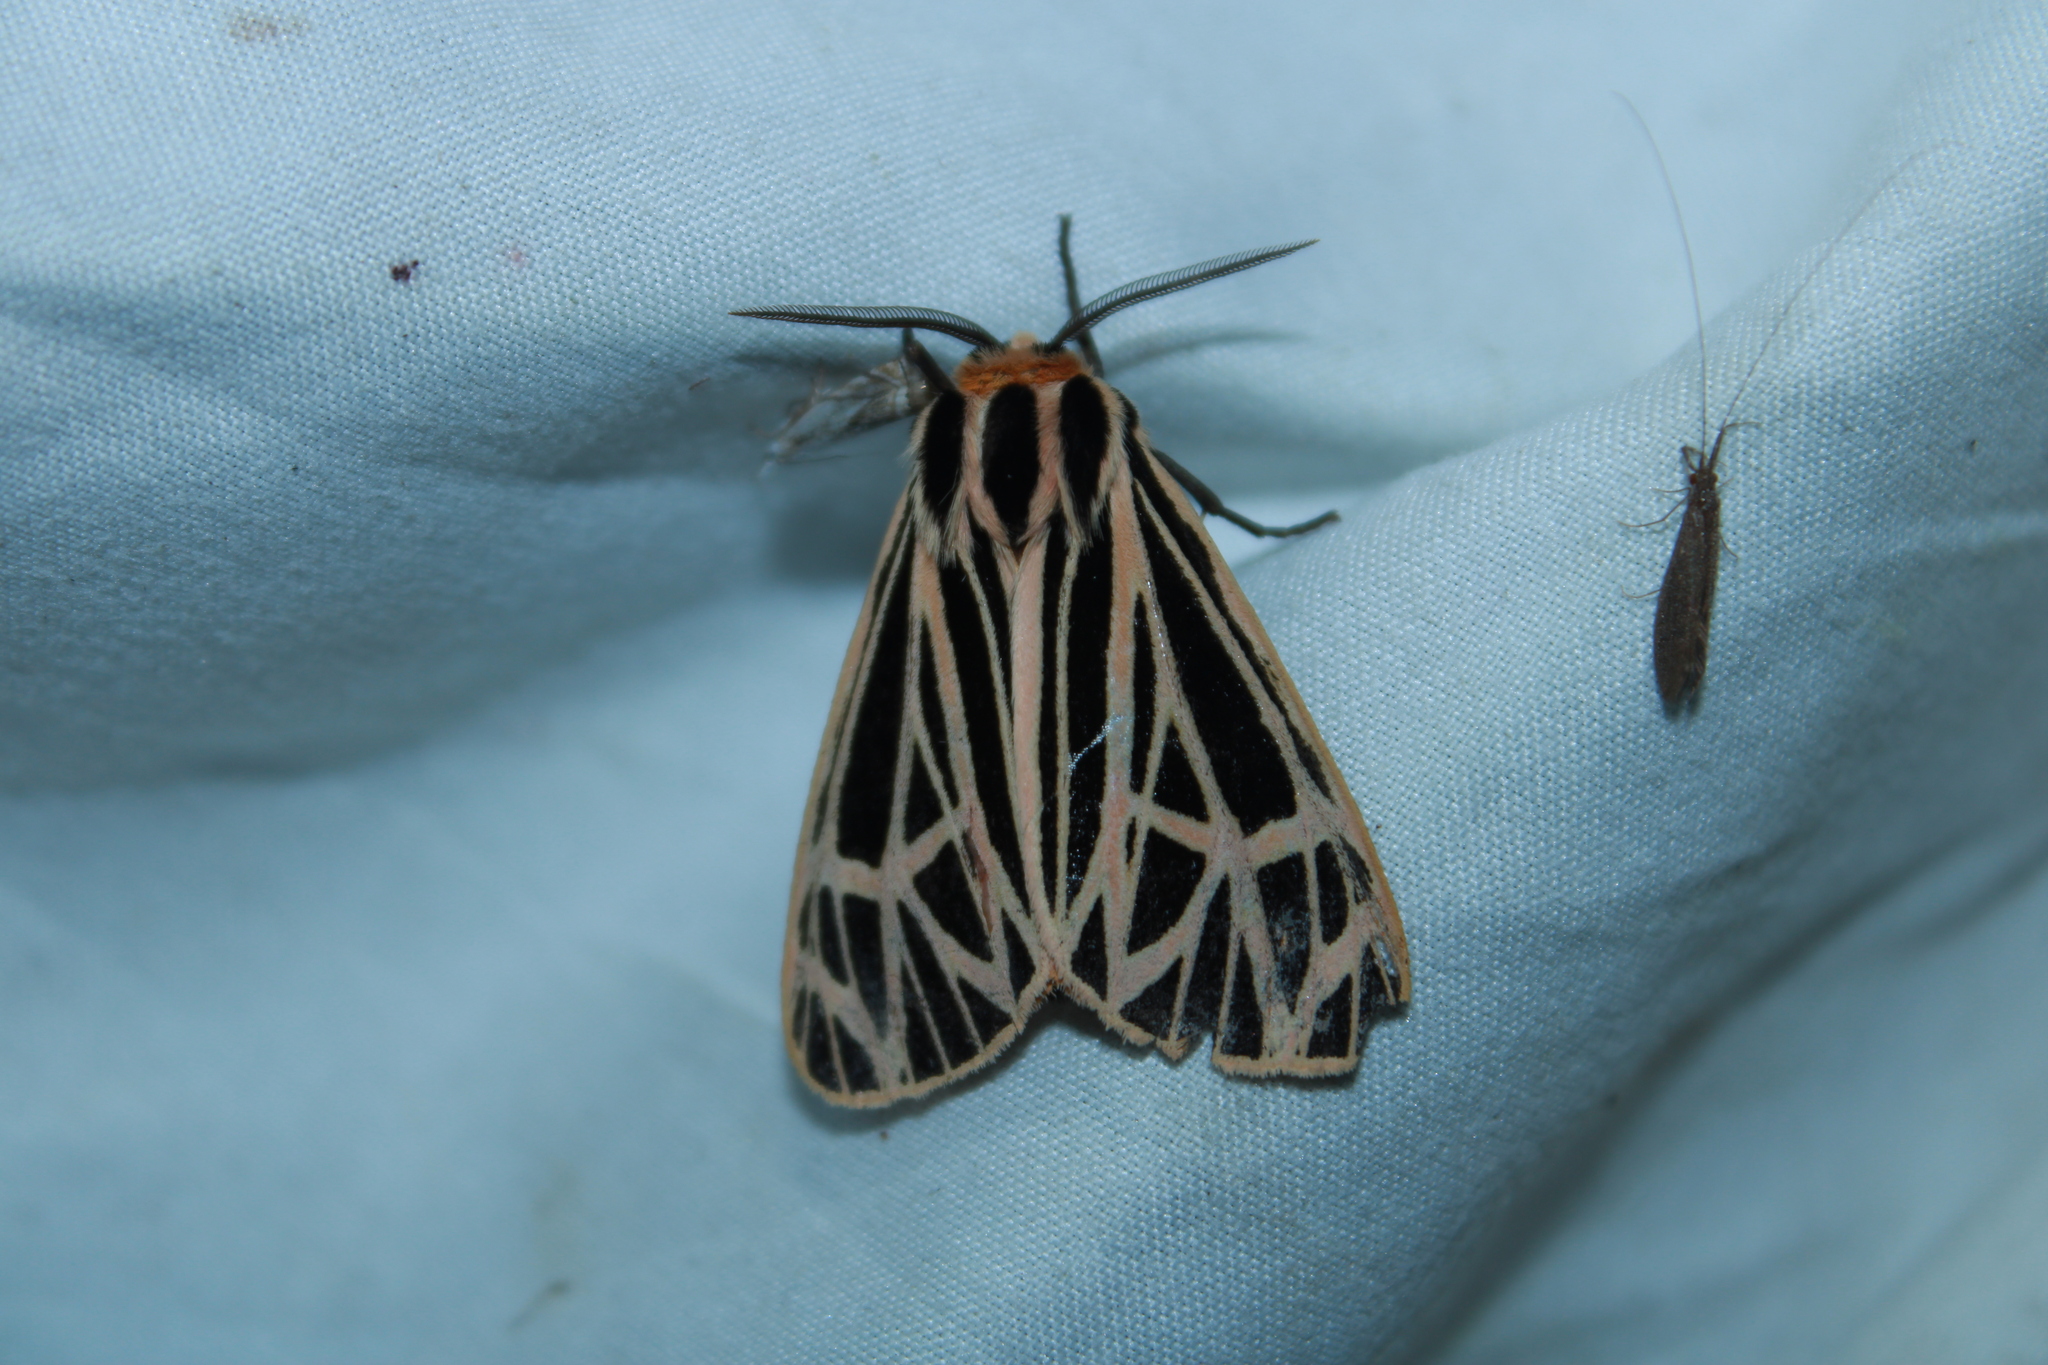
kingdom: Animalia
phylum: Arthropoda
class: Insecta
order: Lepidoptera
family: Erebidae
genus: Grammia
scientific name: Grammia virgo
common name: Virgin tiger moth
